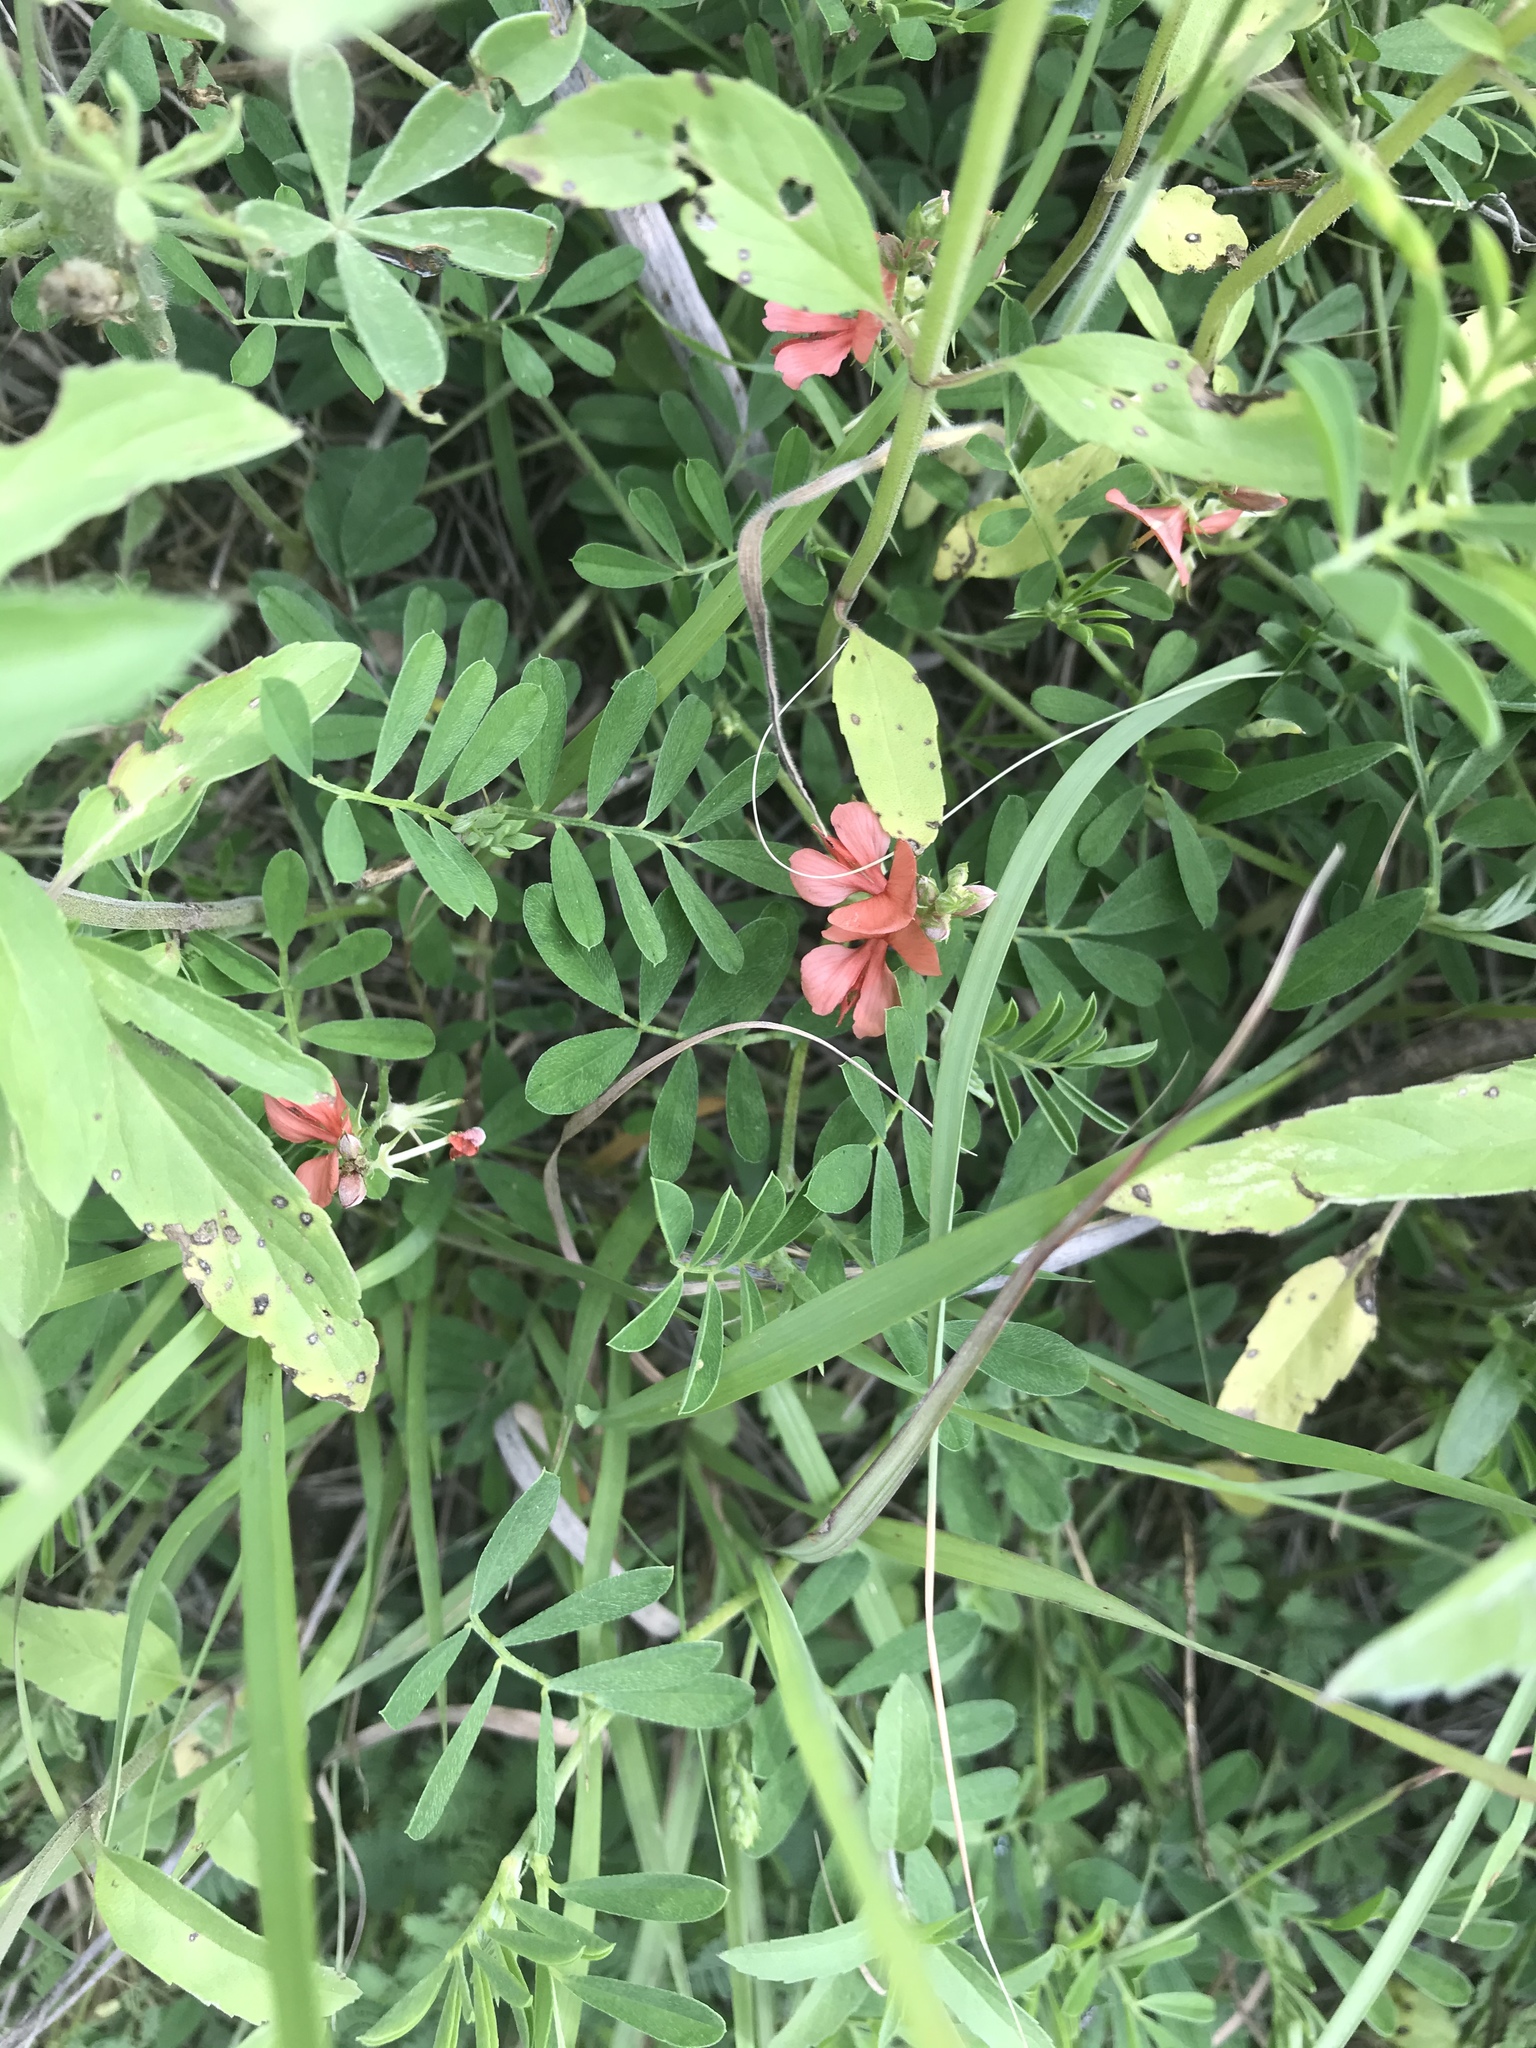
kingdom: Plantae
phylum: Tracheophyta
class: Magnoliopsida
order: Fabales
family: Fabaceae
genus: Indigofera
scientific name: Indigofera miniata
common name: Coast indigo
